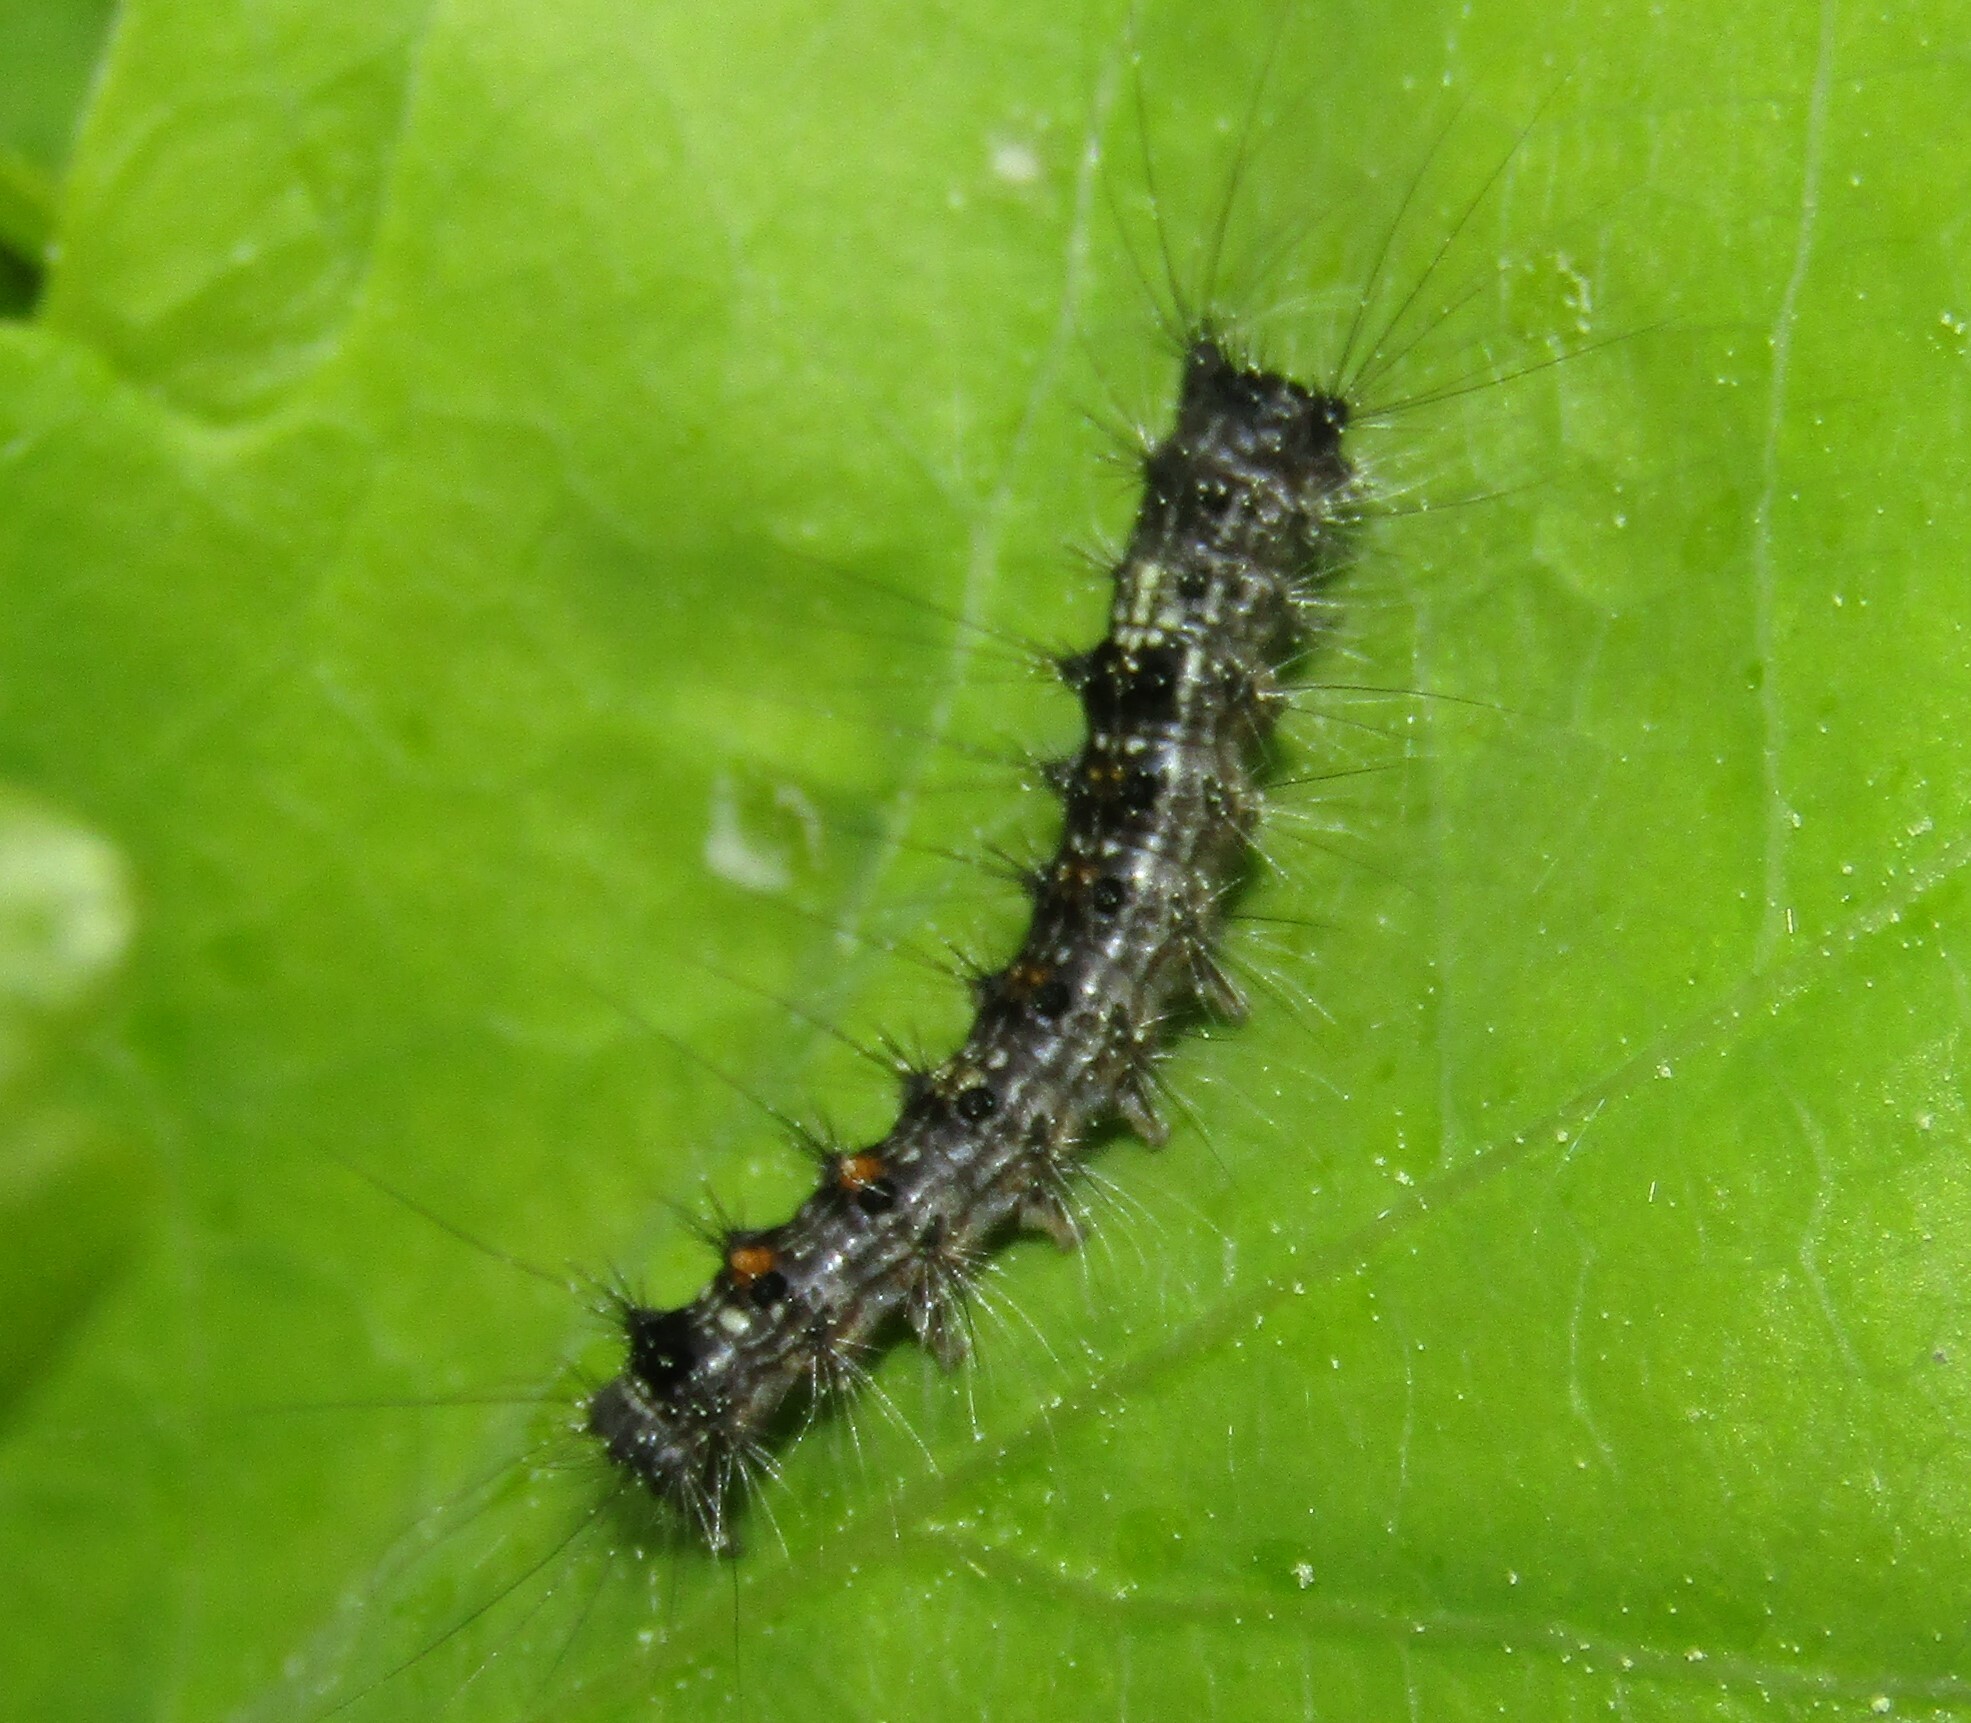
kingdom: Animalia
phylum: Arthropoda
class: Insecta
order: Lepidoptera
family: Erebidae
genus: Lymantria
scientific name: Lymantria dispar
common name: Gypsy moth
